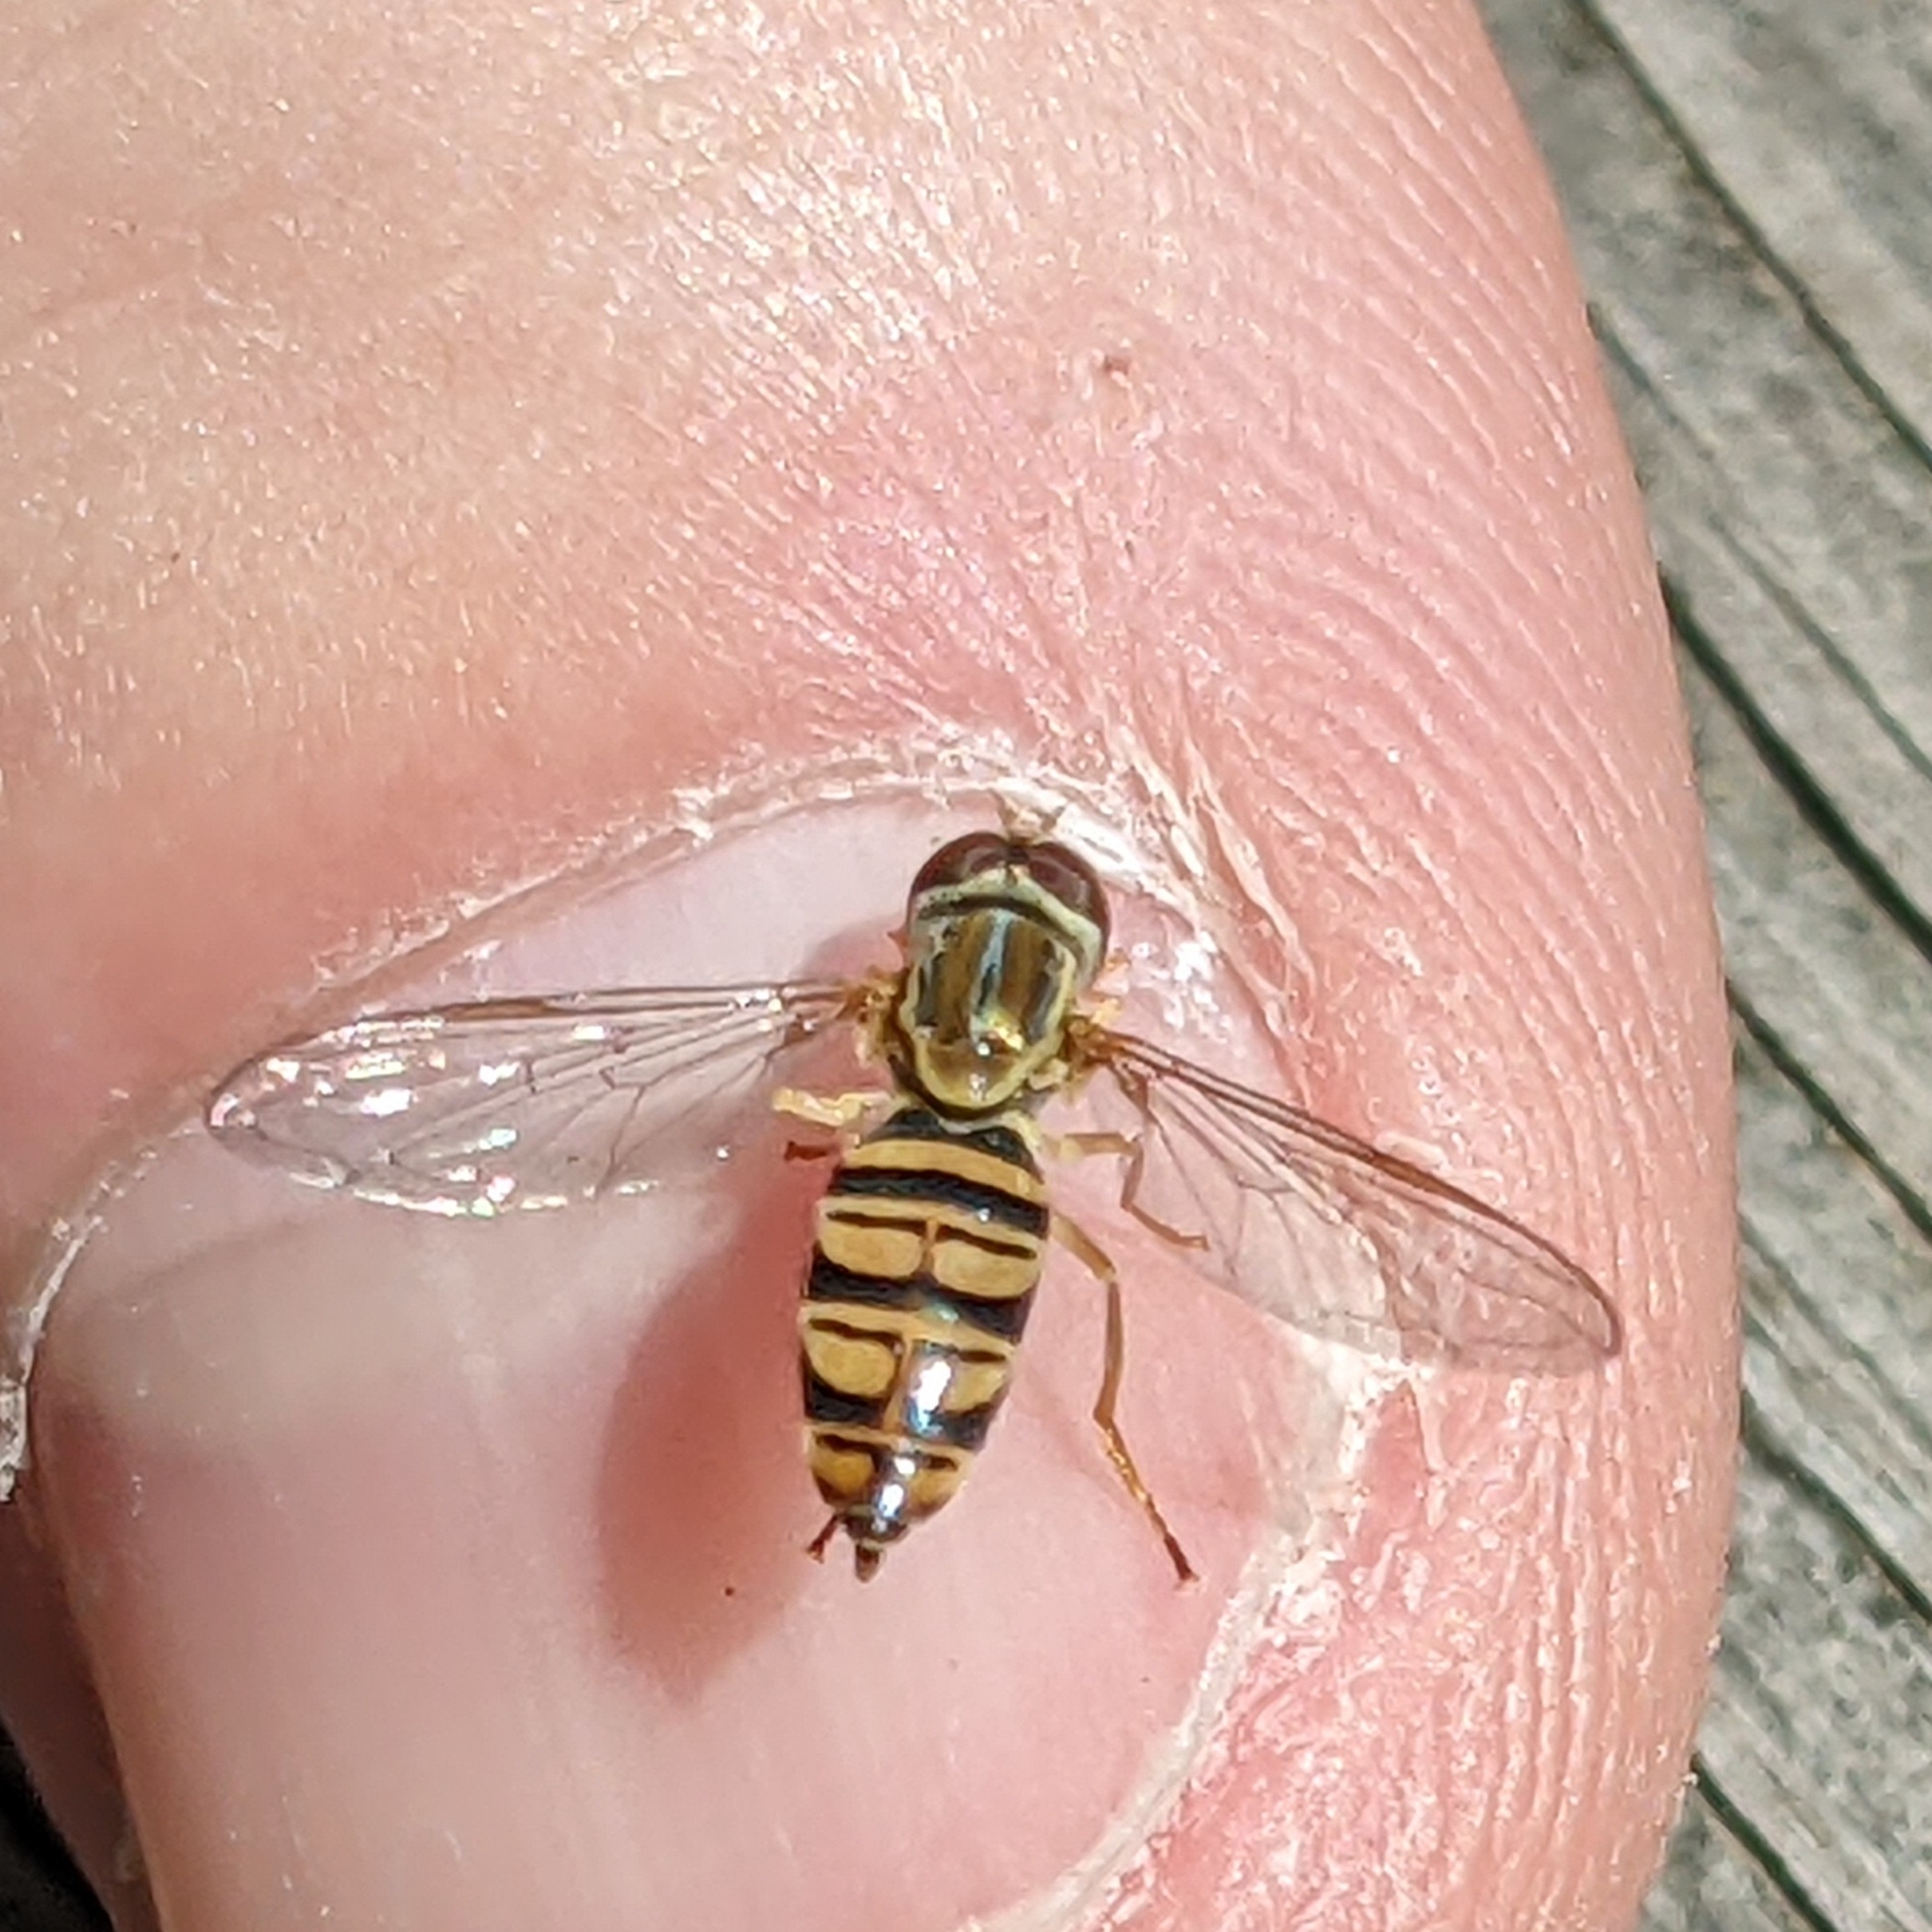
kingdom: Animalia
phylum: Arthropoda
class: Insecta
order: Diptera
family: Syrphidae
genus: Toxomerus
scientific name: Toxomerus politus
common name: Maize calligrapher
